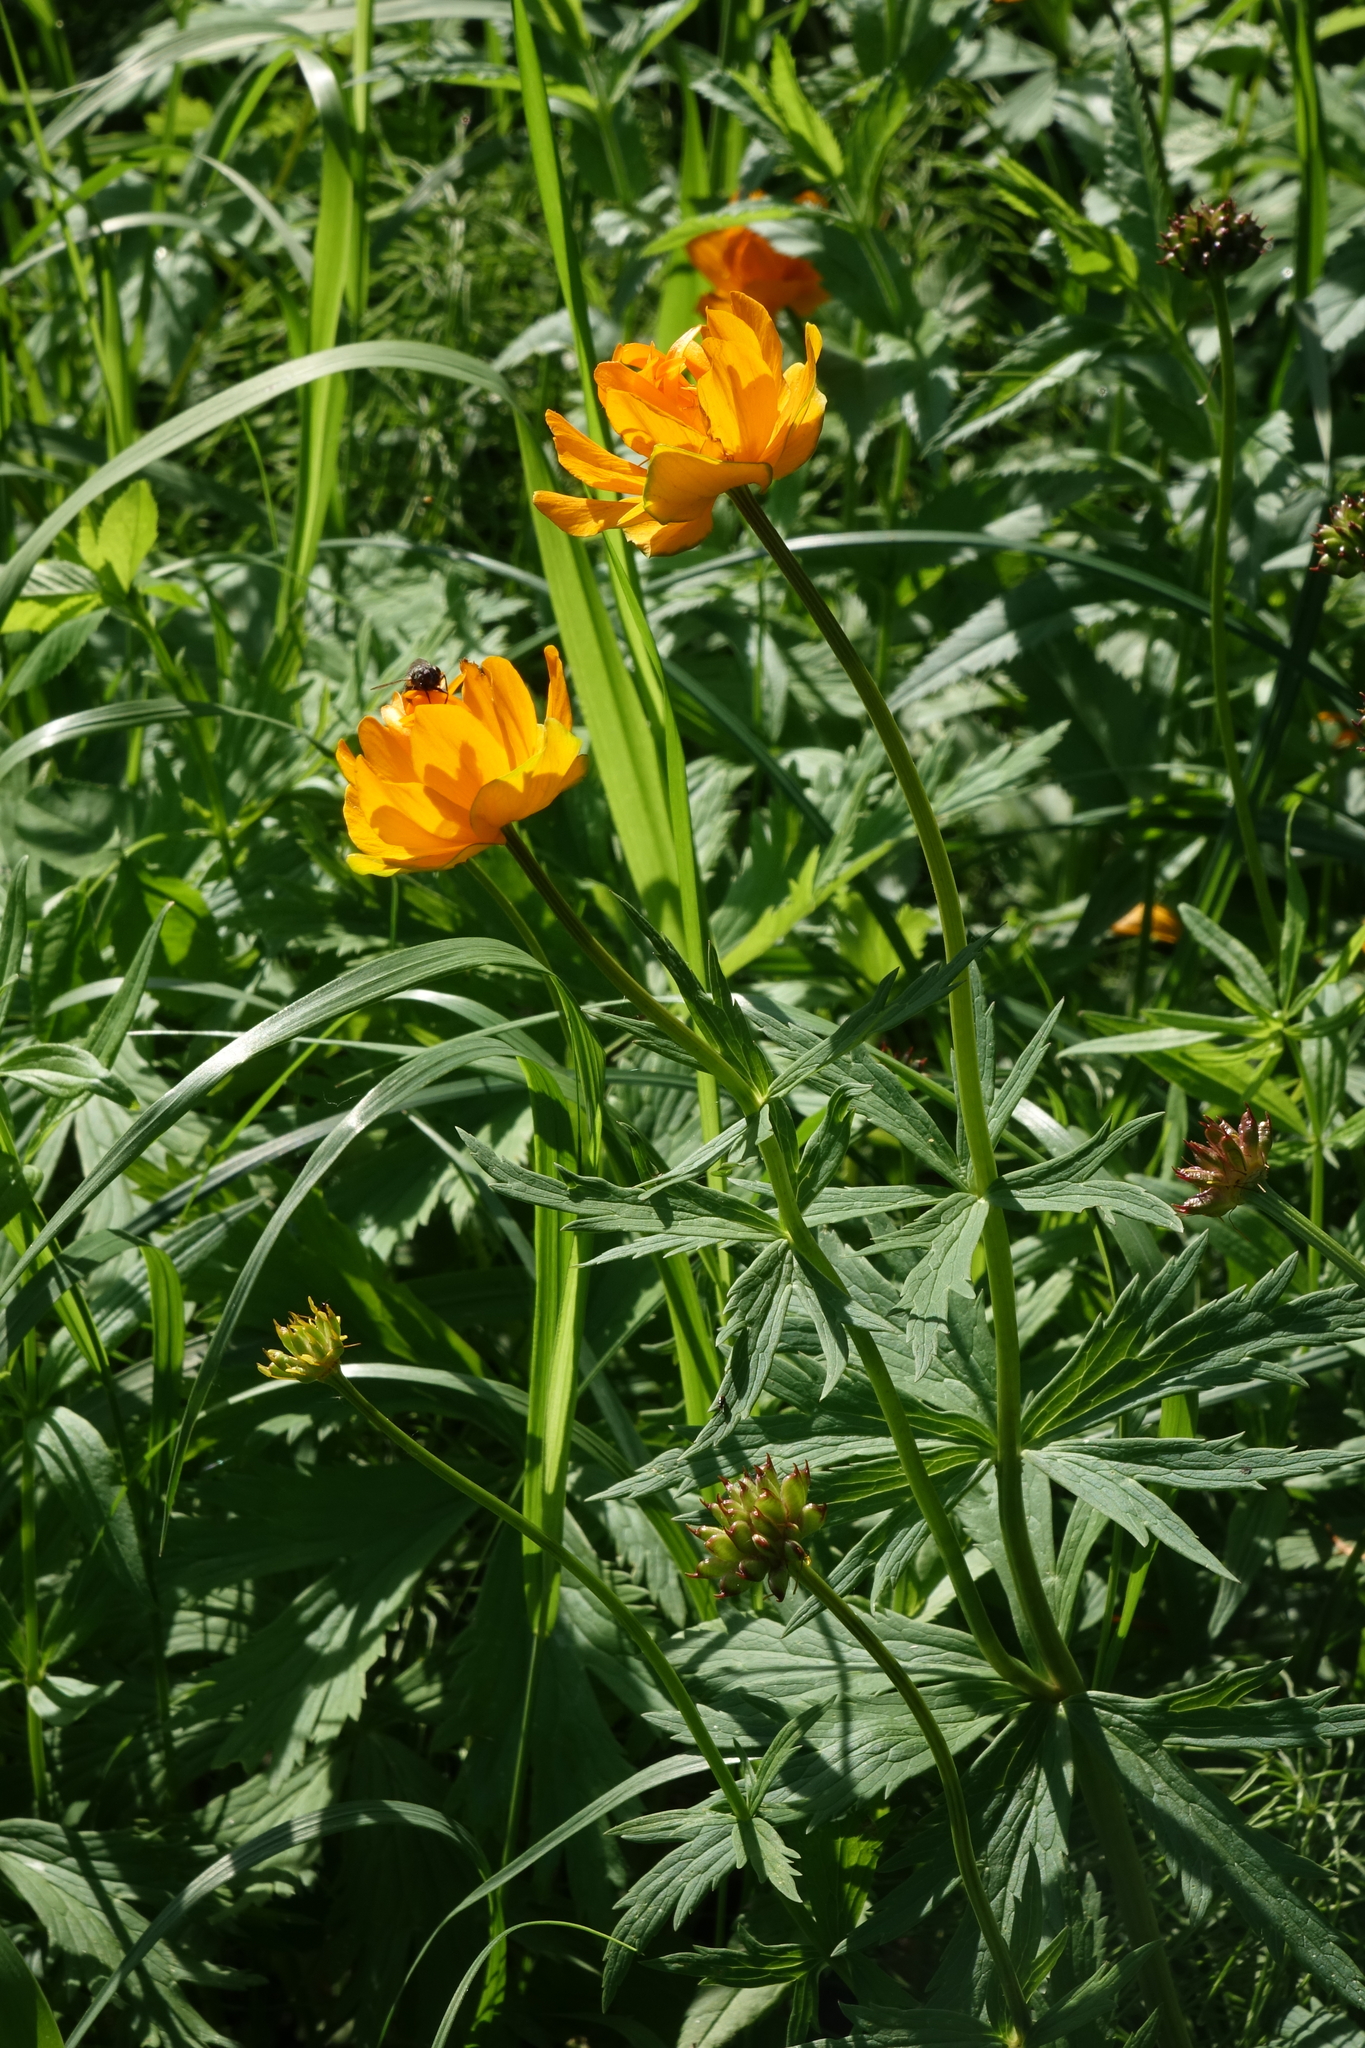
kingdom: Plantae
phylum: Tracheophyta
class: Magnoliopsida
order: Ranunculales
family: Ranunculaceae
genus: Trollius
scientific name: Trollius asiaticus
